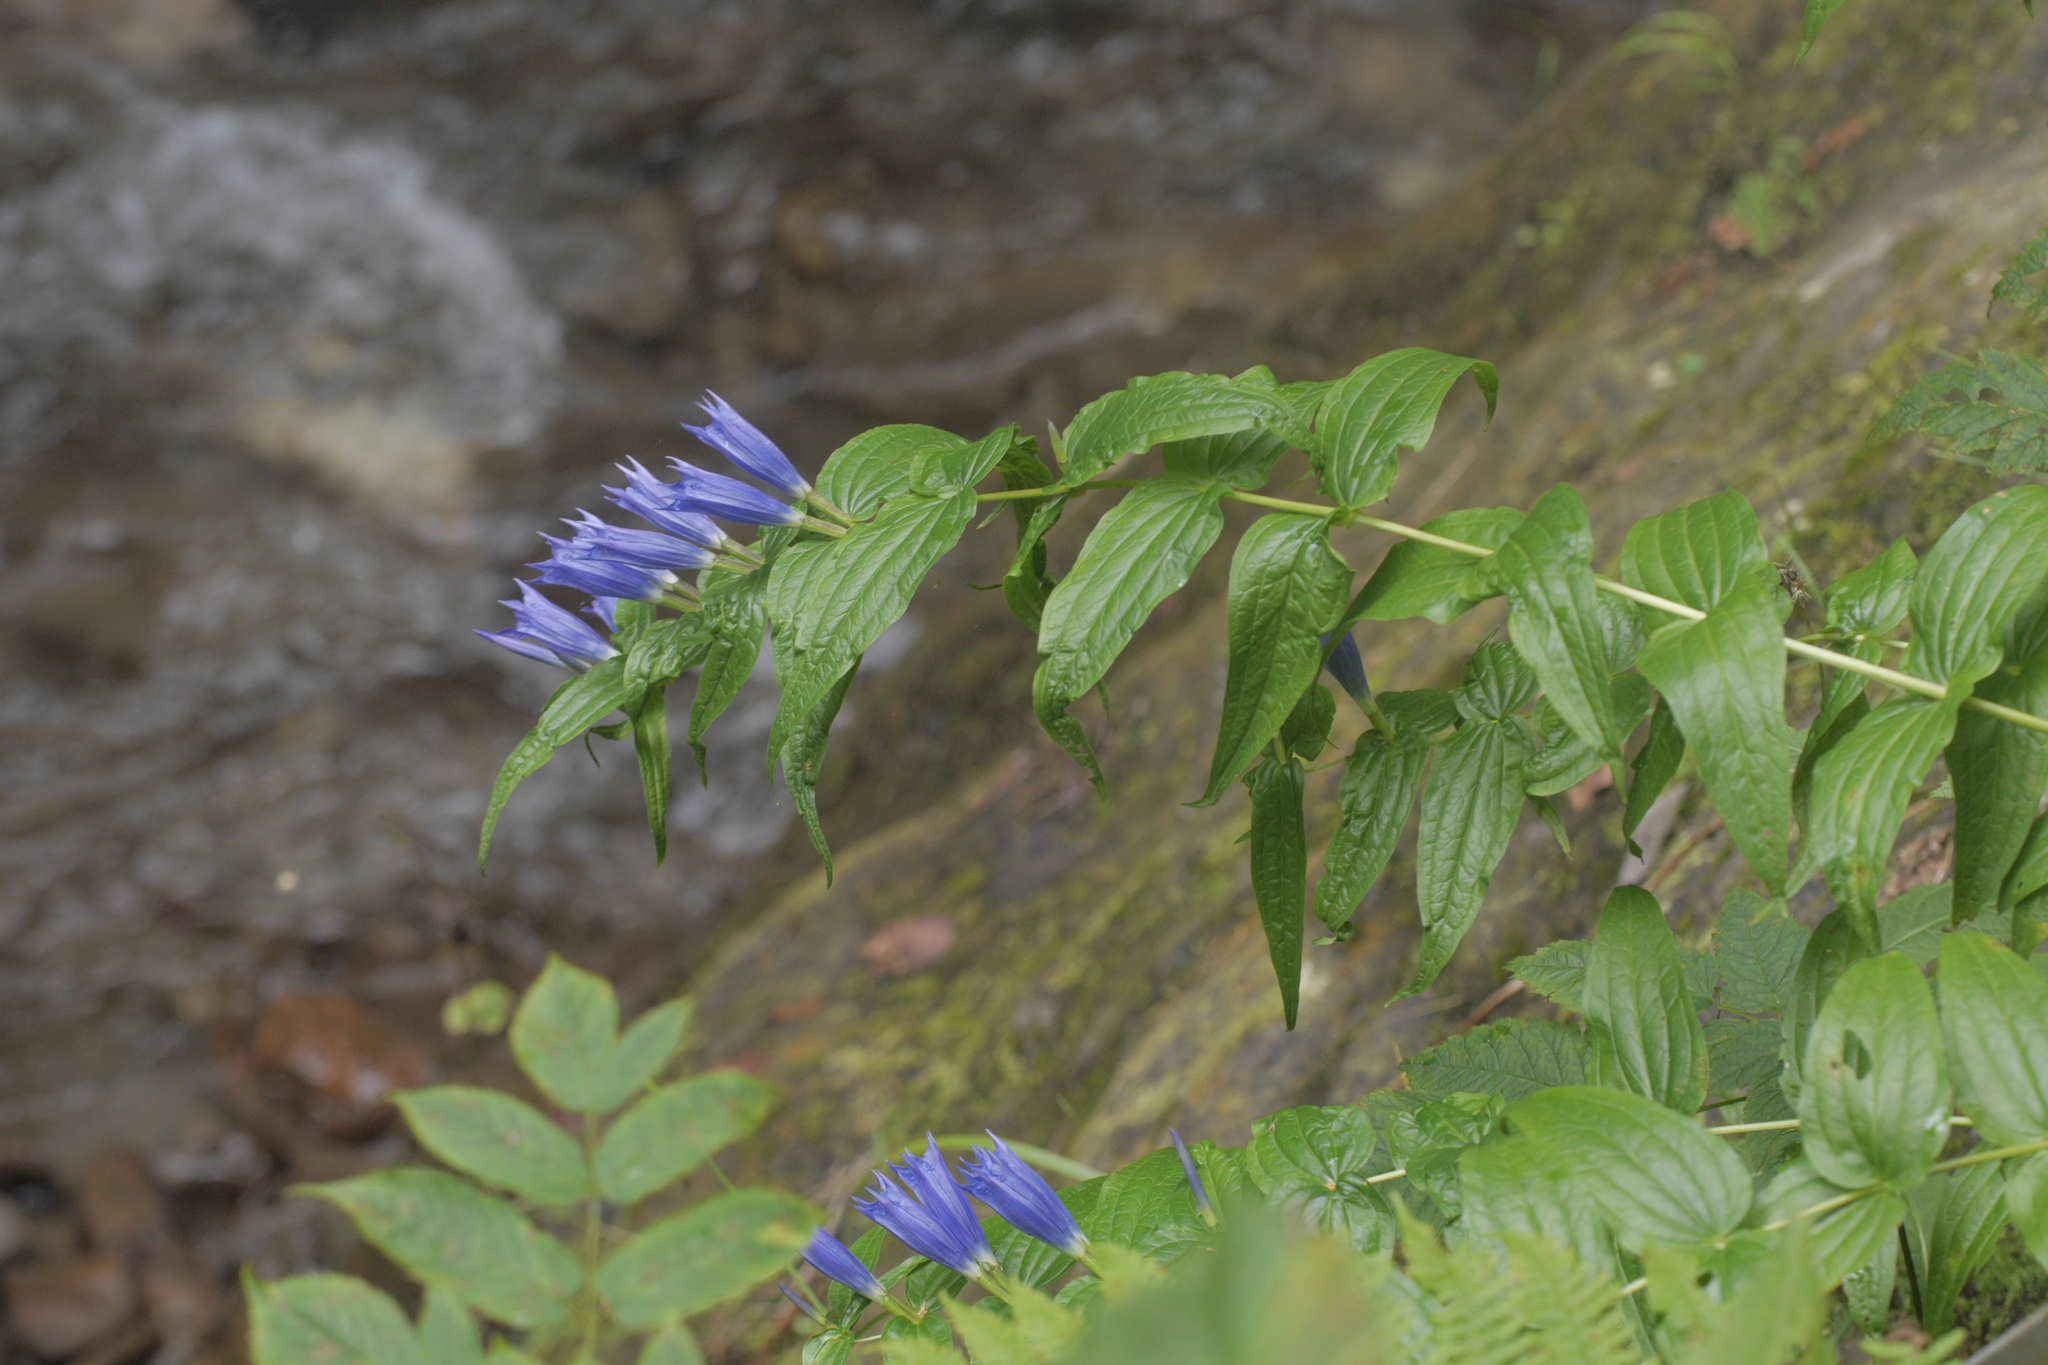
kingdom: Plantae
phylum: Tracheophyta
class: Magnoliopsida
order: Gentianales
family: Gentianaceae
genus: Gentiana
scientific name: Gentiana asclepiadea
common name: Willow gentian
